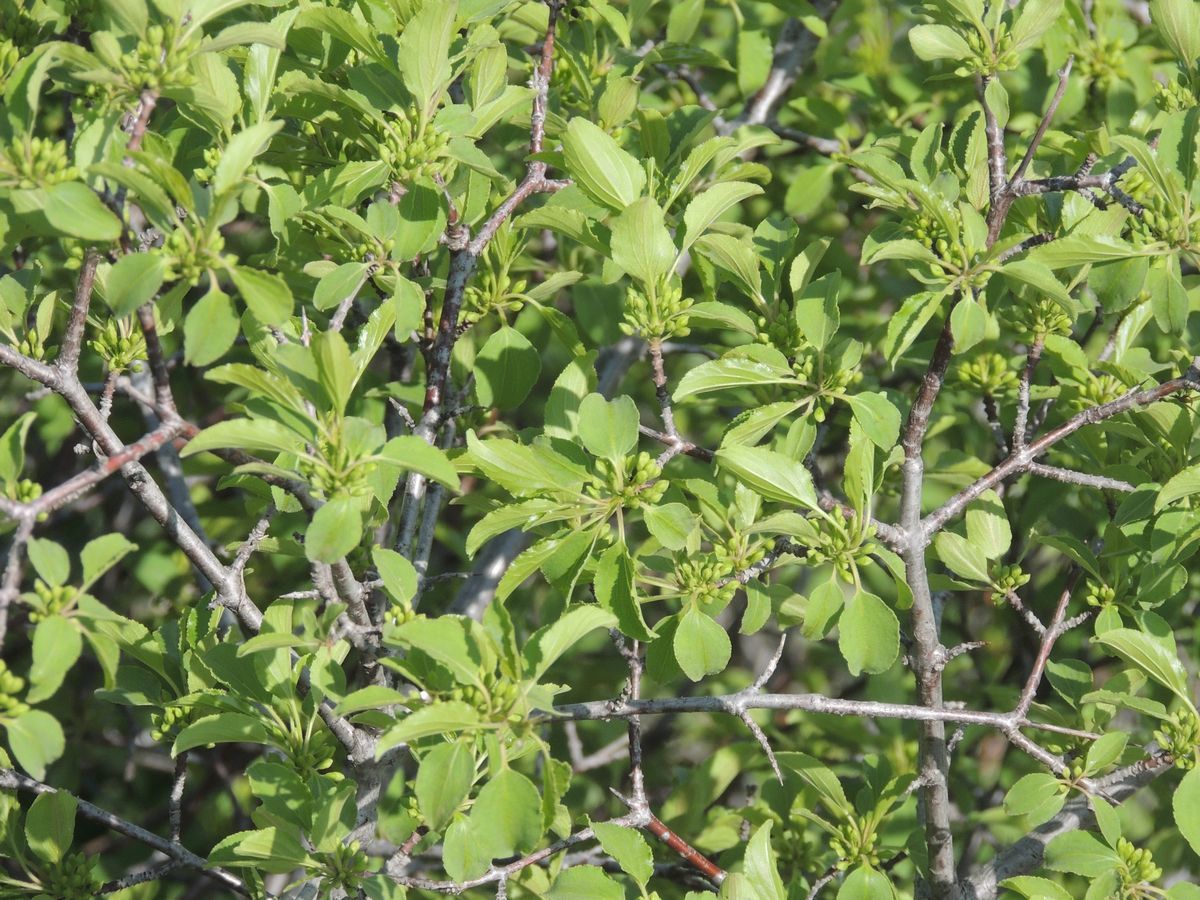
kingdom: Plantae
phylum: Tracheophyta
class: Magnoliopsida
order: Rosales
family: Rhamnaceae
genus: Rhamnus
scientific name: Rhamnus cathartica
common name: Common buckthorn
